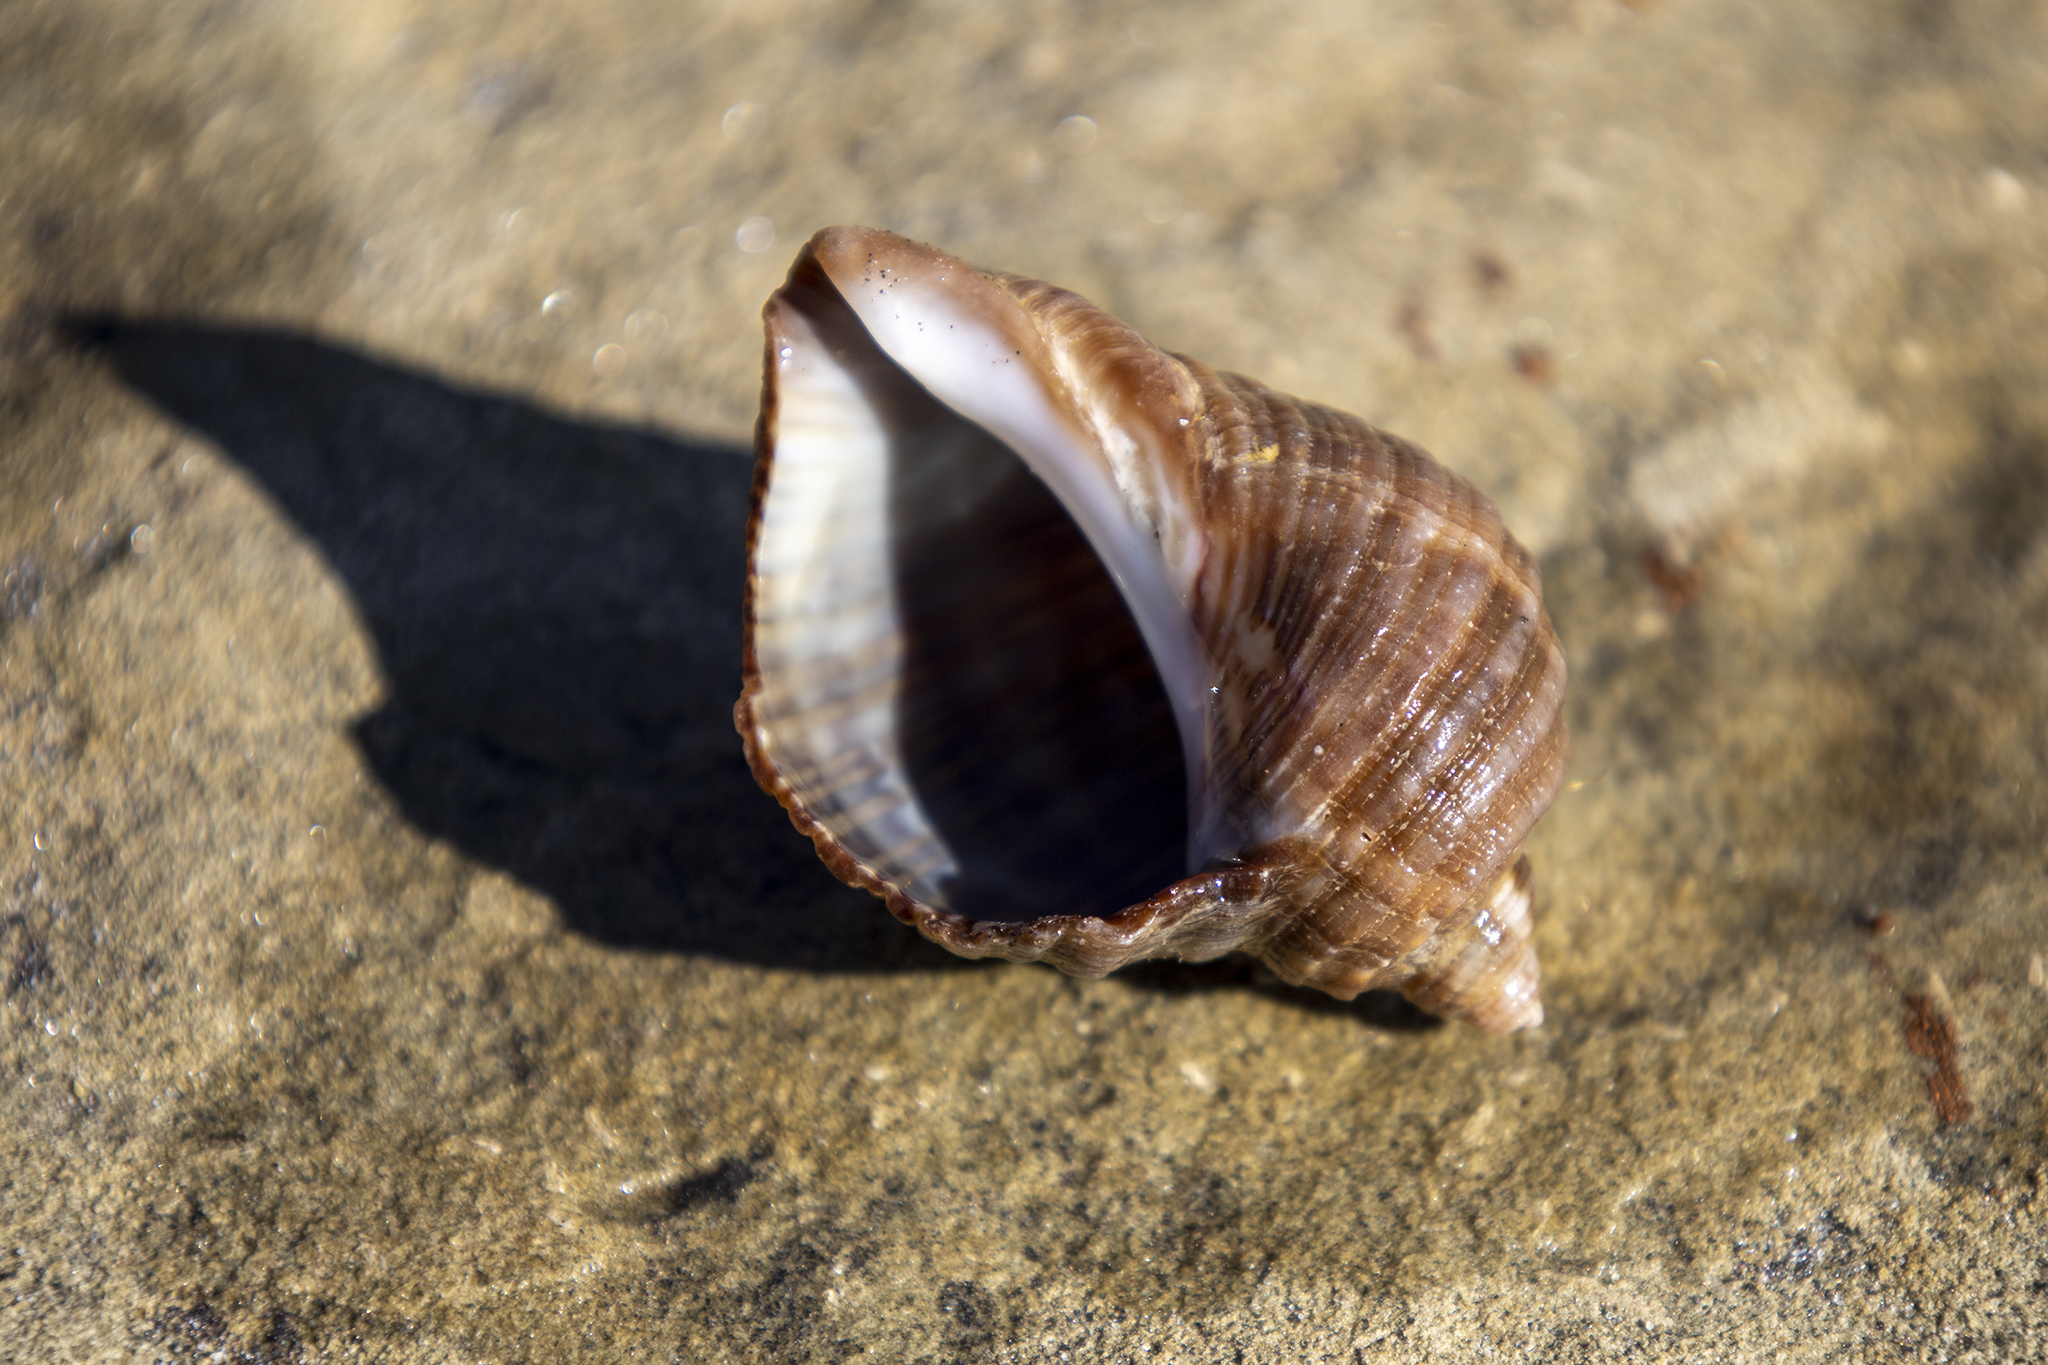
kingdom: Animalia
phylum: Mollusca
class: Gastropoda
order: Neogastropoda
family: Muricidae
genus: Dicathais
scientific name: Dicathais orbita
